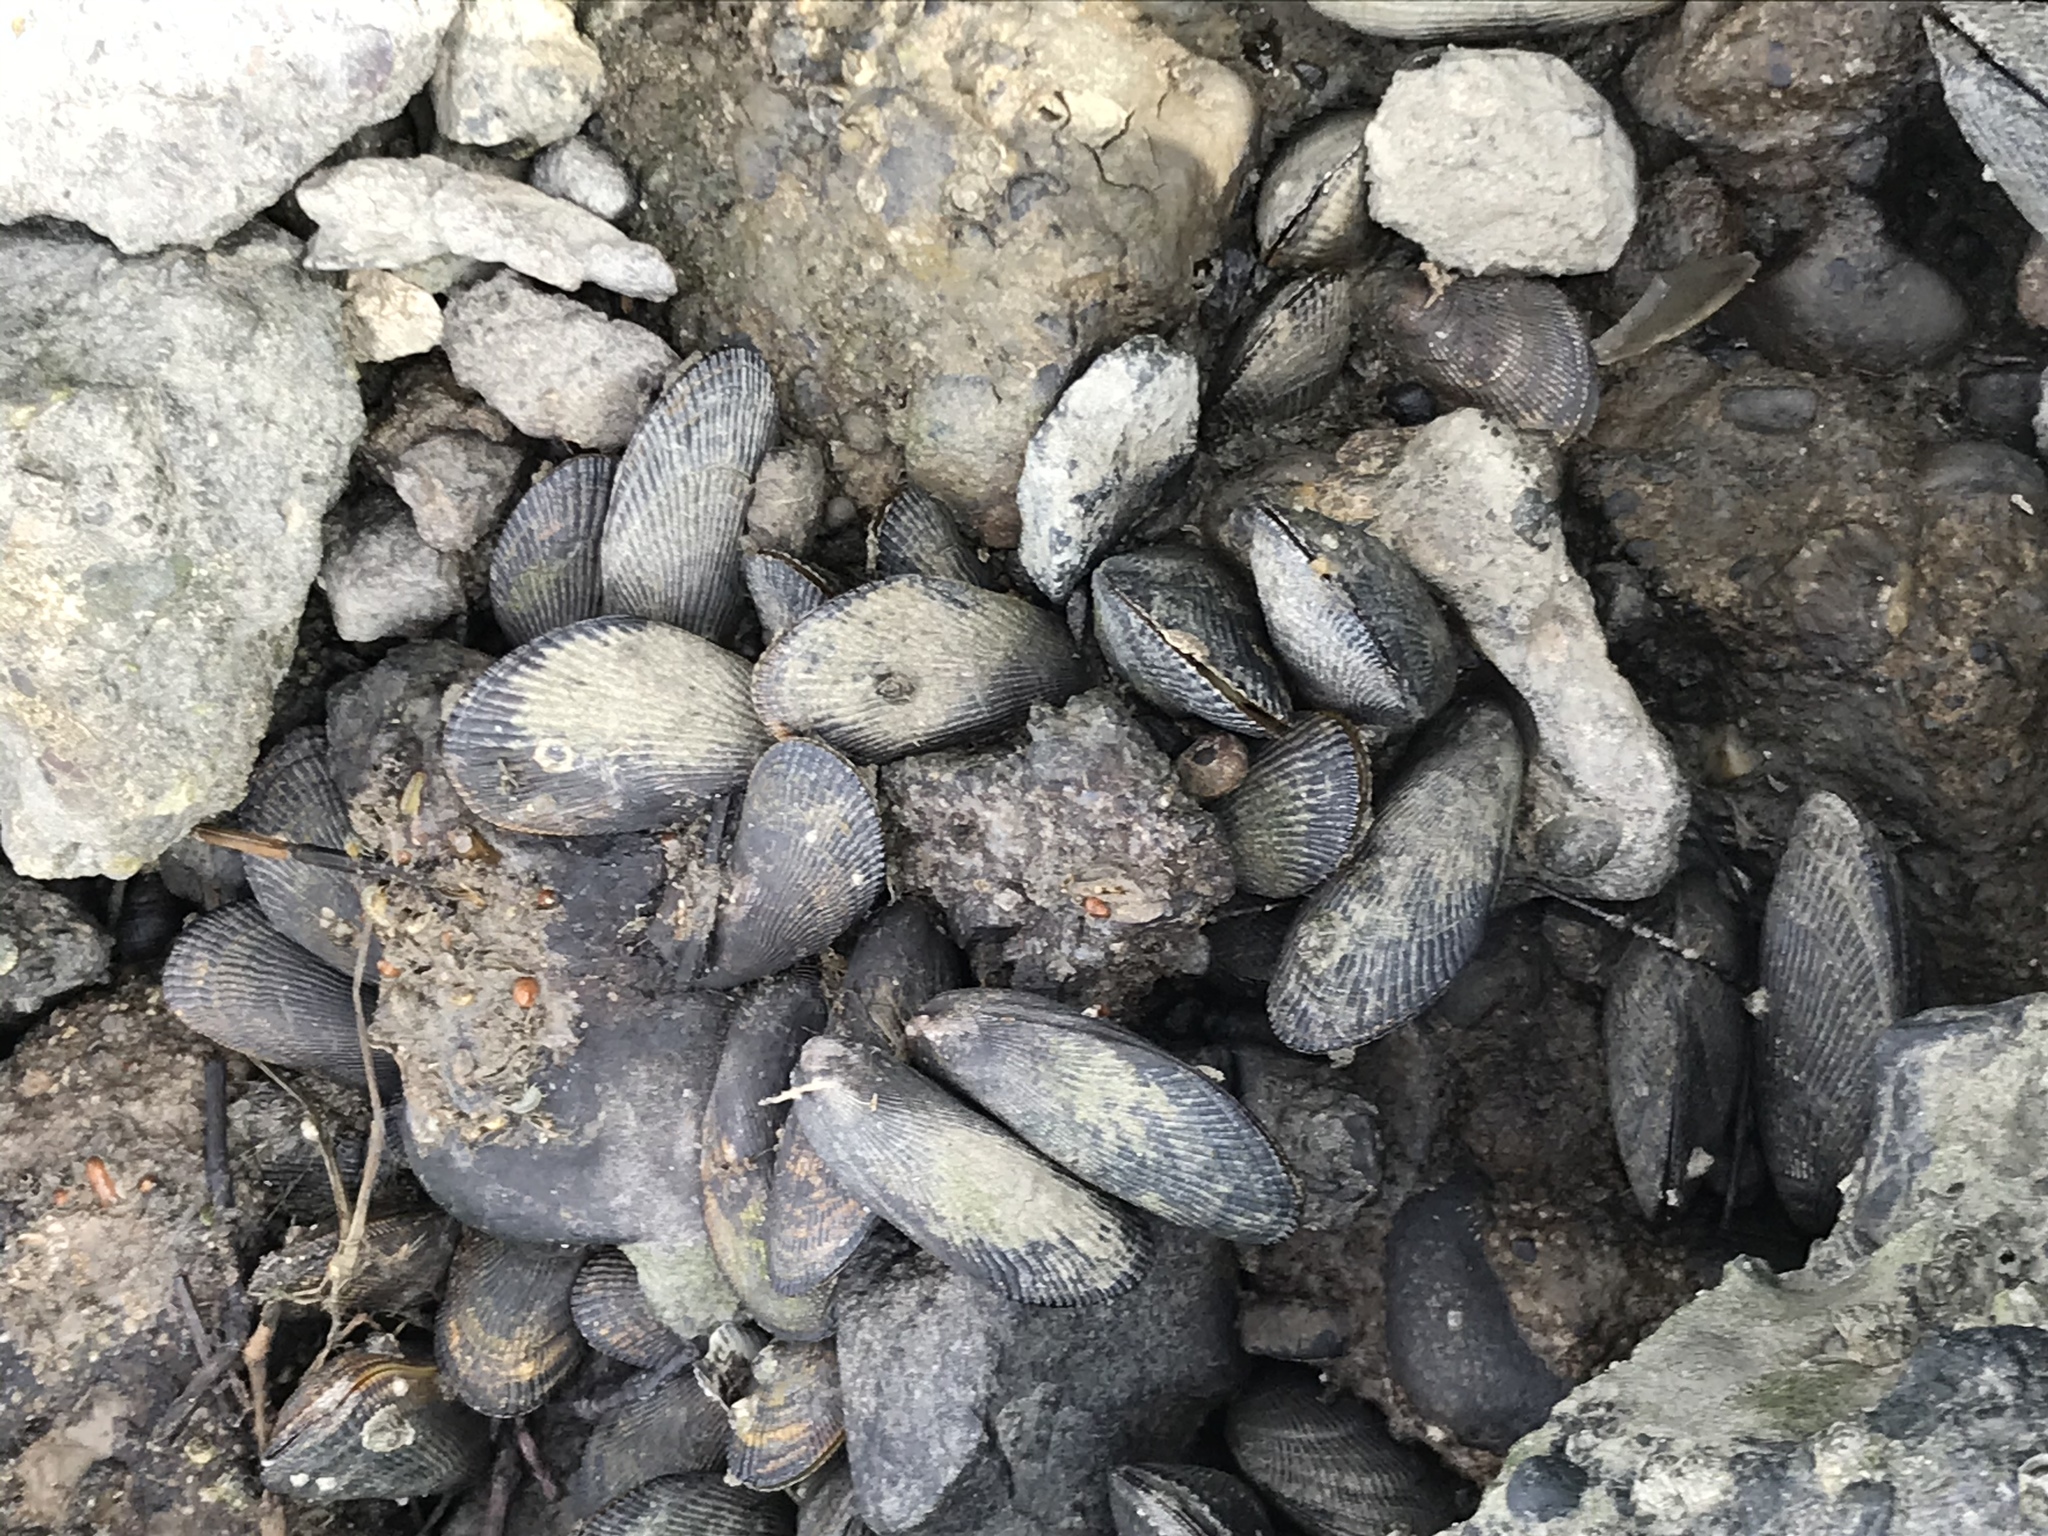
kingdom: Animalia
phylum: Mollusca
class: Bivalvia
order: Mytilida
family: Mytilidae
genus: Geukensia
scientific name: Geukensia demissa
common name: Ribbed mussel
